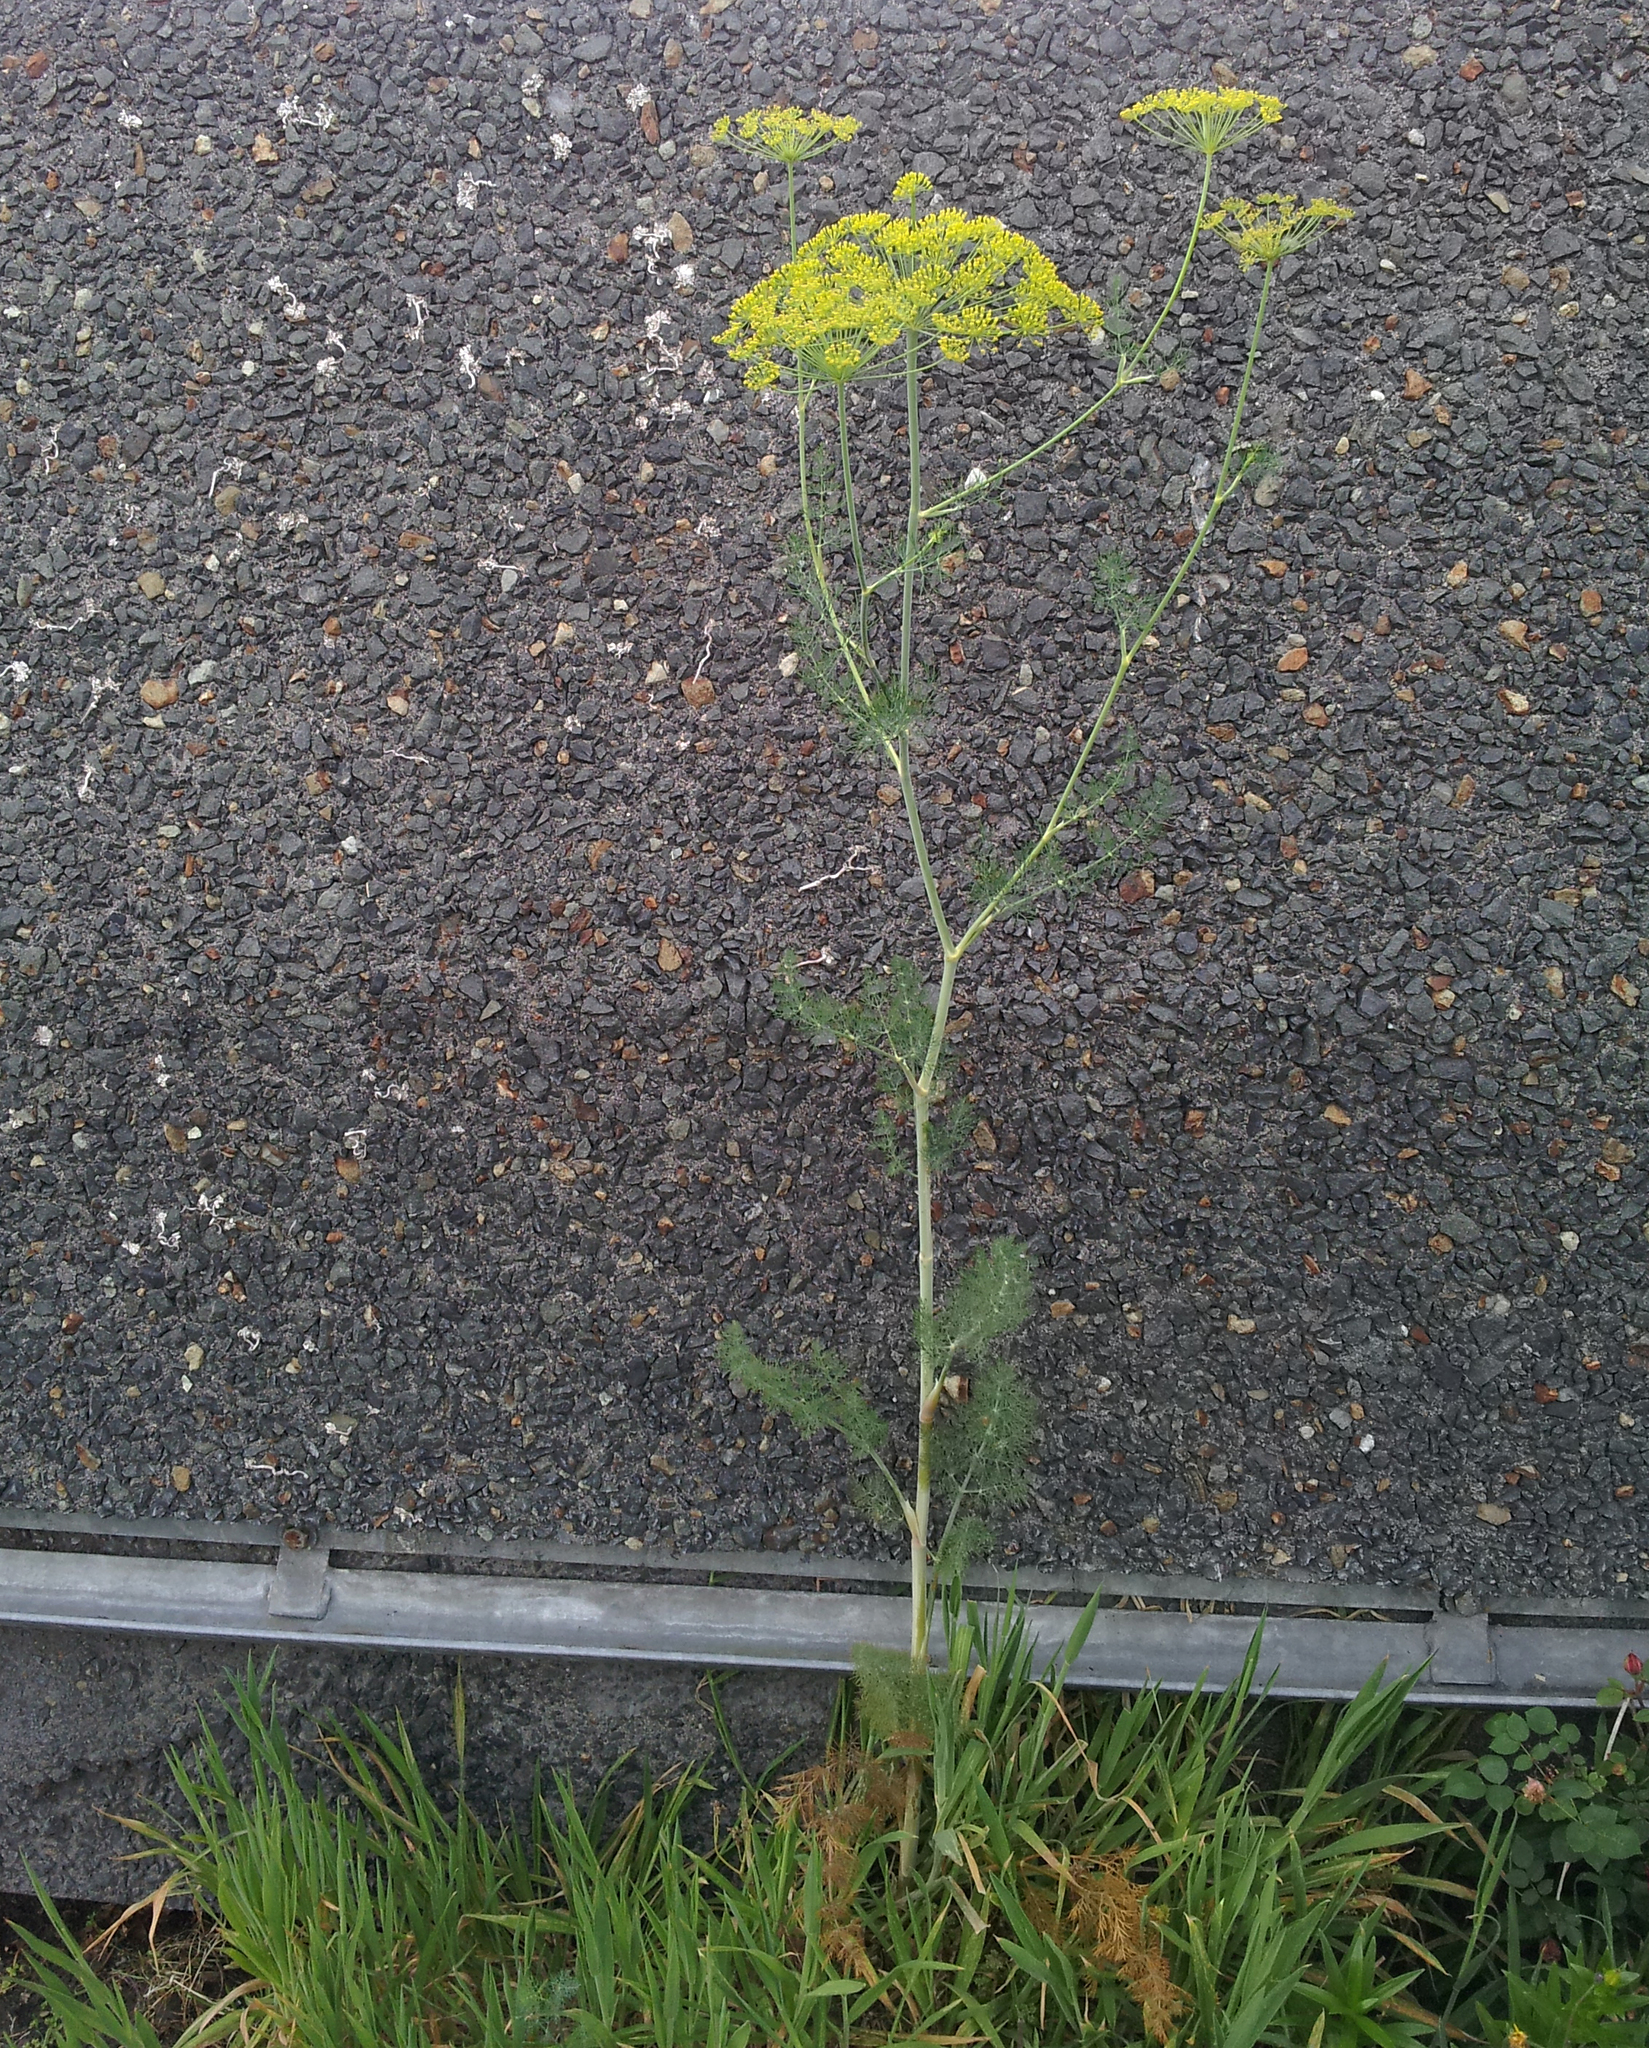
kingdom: Plantae
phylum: Tracheophyta
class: Magnoliopsida
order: Apiales
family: Apiaceae
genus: Anethum
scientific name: Anethum graveolens
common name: Dill
